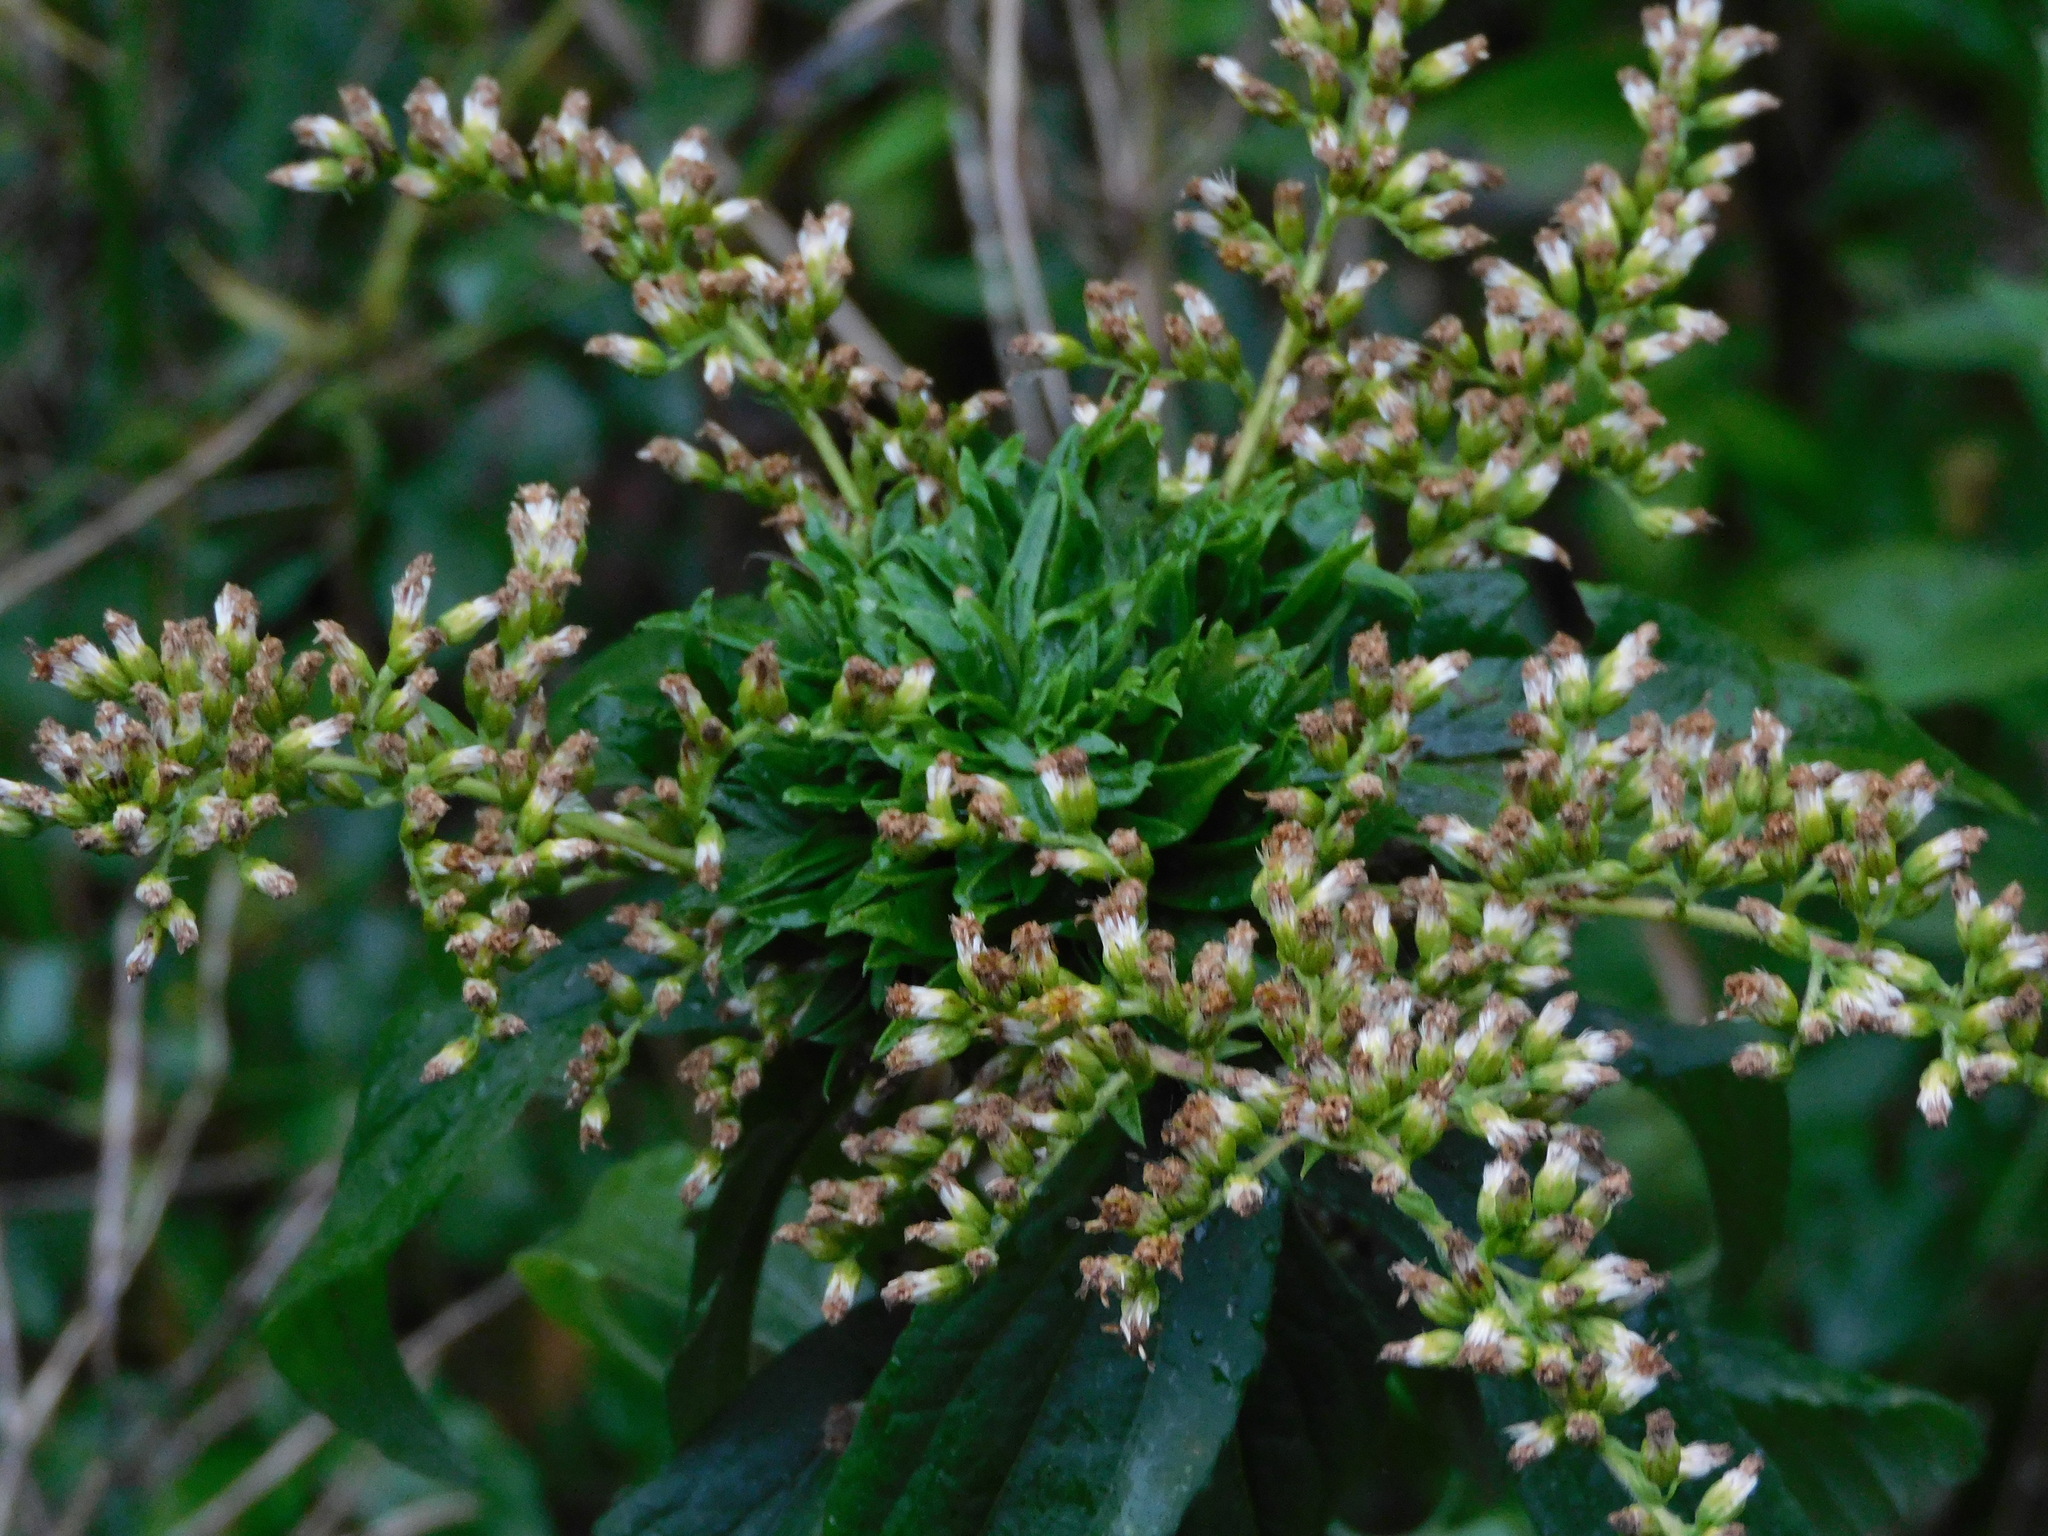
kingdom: Animalia
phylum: Arthropoda
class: Insecta
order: Diptera
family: Cecidomyiidae
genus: Rhopalomyia
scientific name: Rhopalomyia capitata
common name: Giant goldenrod bunch gall midge
